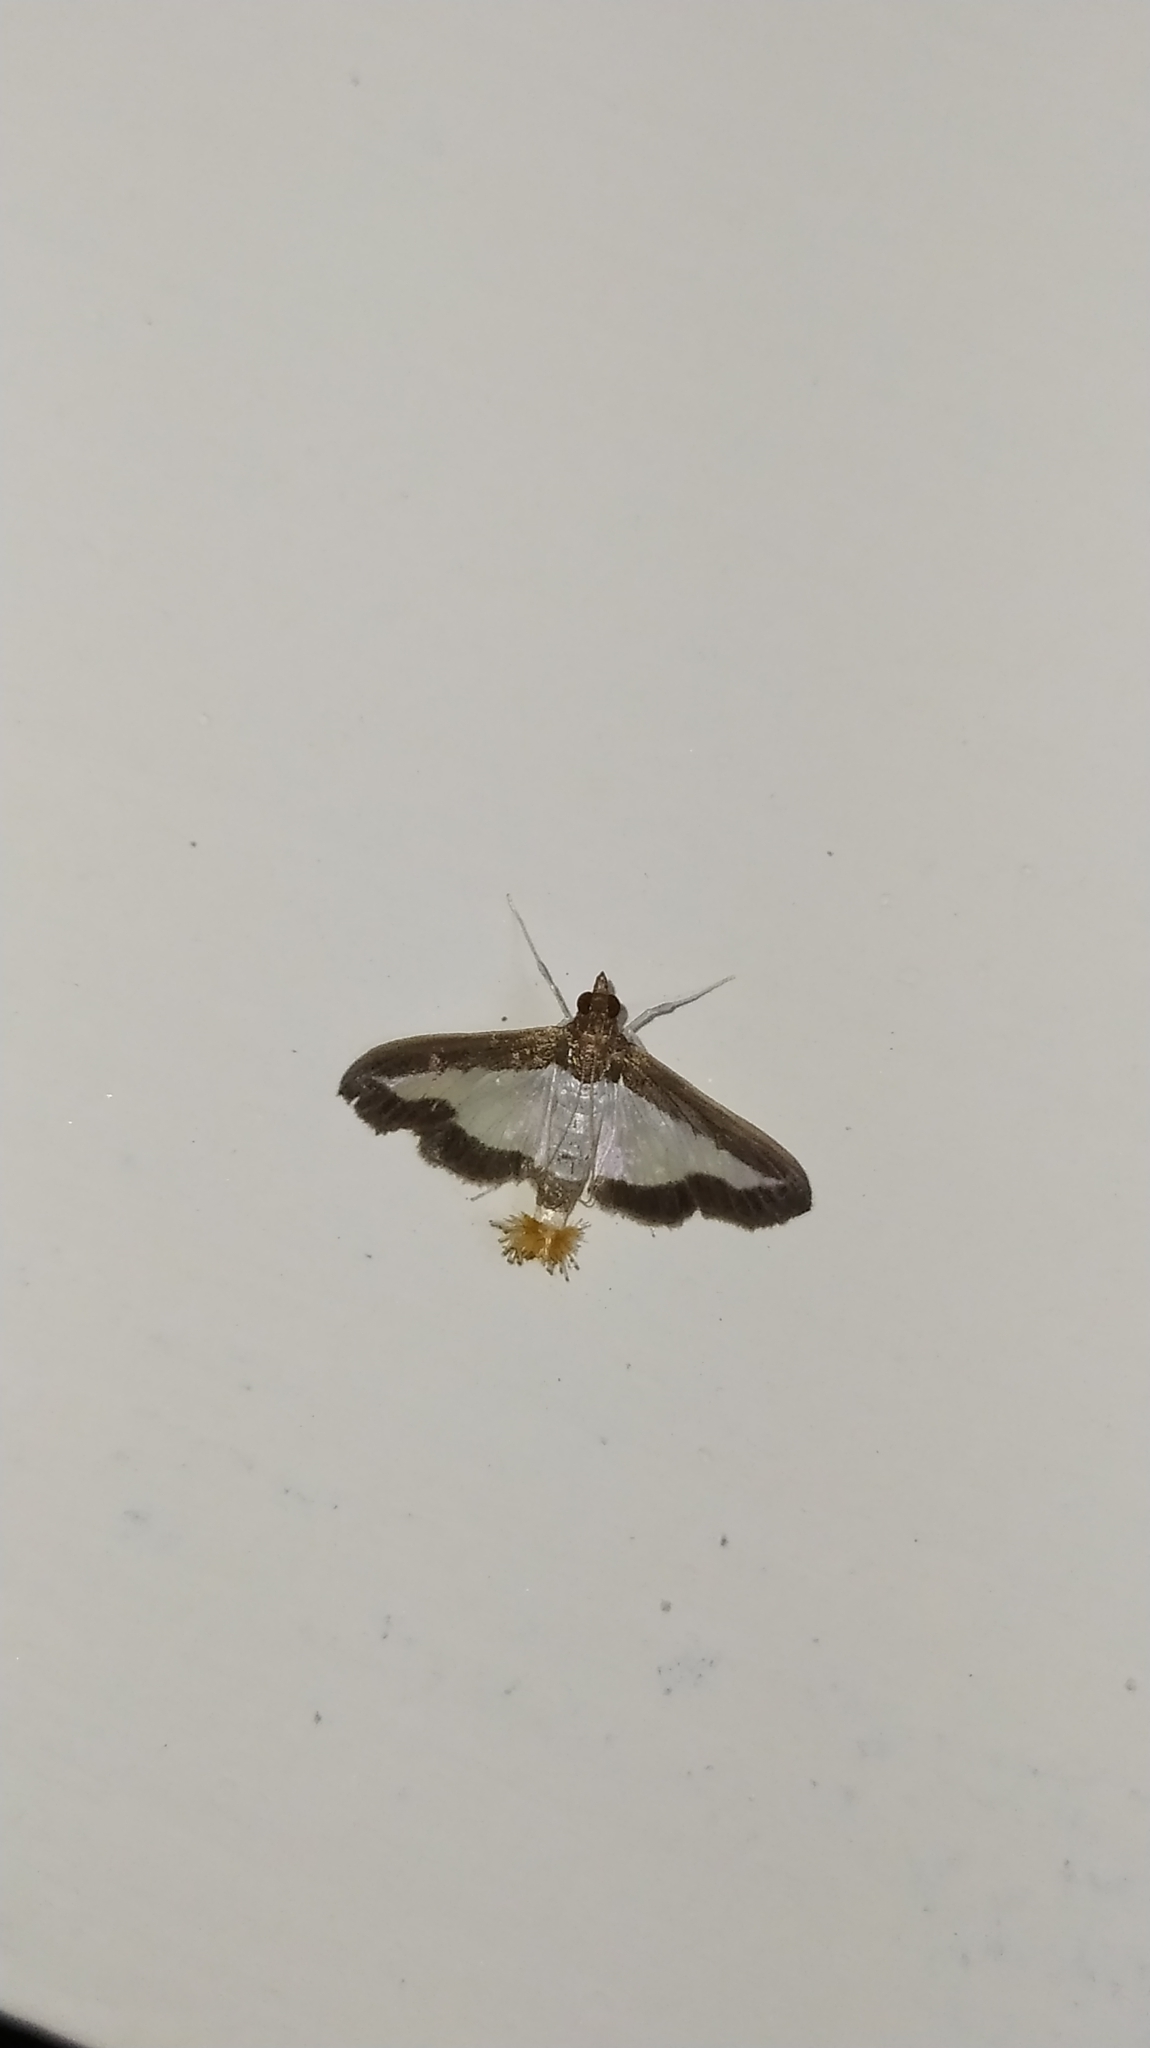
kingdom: Animalia
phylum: Arthropoda
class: Insecta
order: Lepidoptera
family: Crambidae
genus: Diaphania
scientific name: Diaphania indica
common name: Cucumber moth
